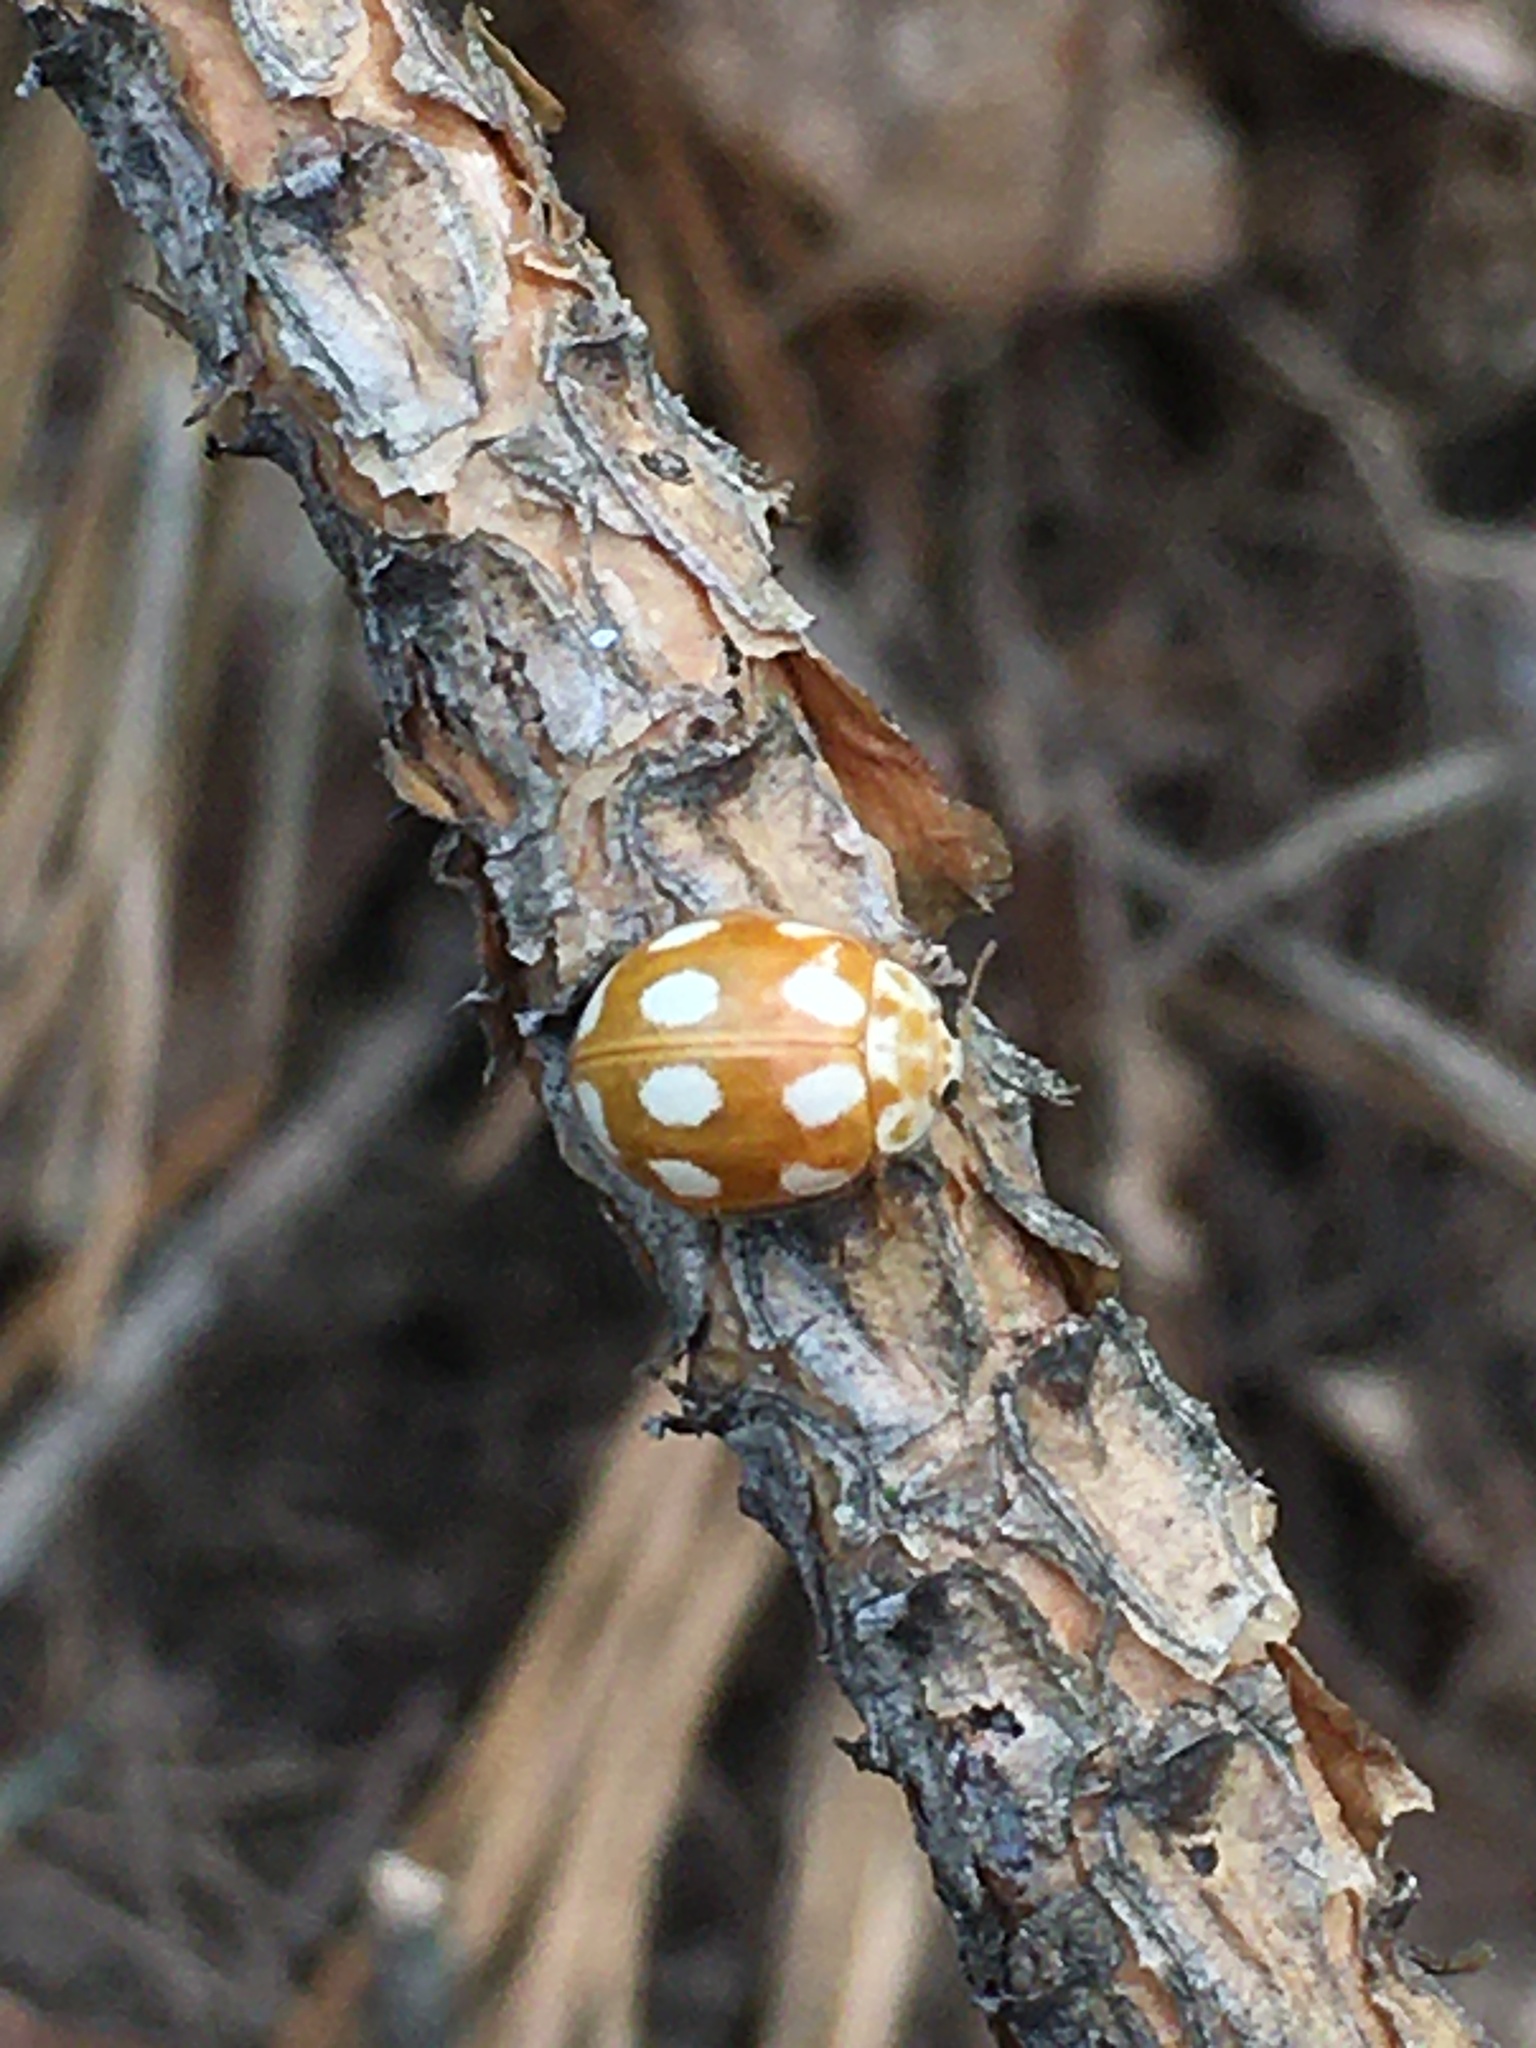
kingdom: Animalia
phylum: Arthropoda
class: Insecta
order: Coleoptera
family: Coccinellidae
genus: Calvia
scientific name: Calvia decemguttata
